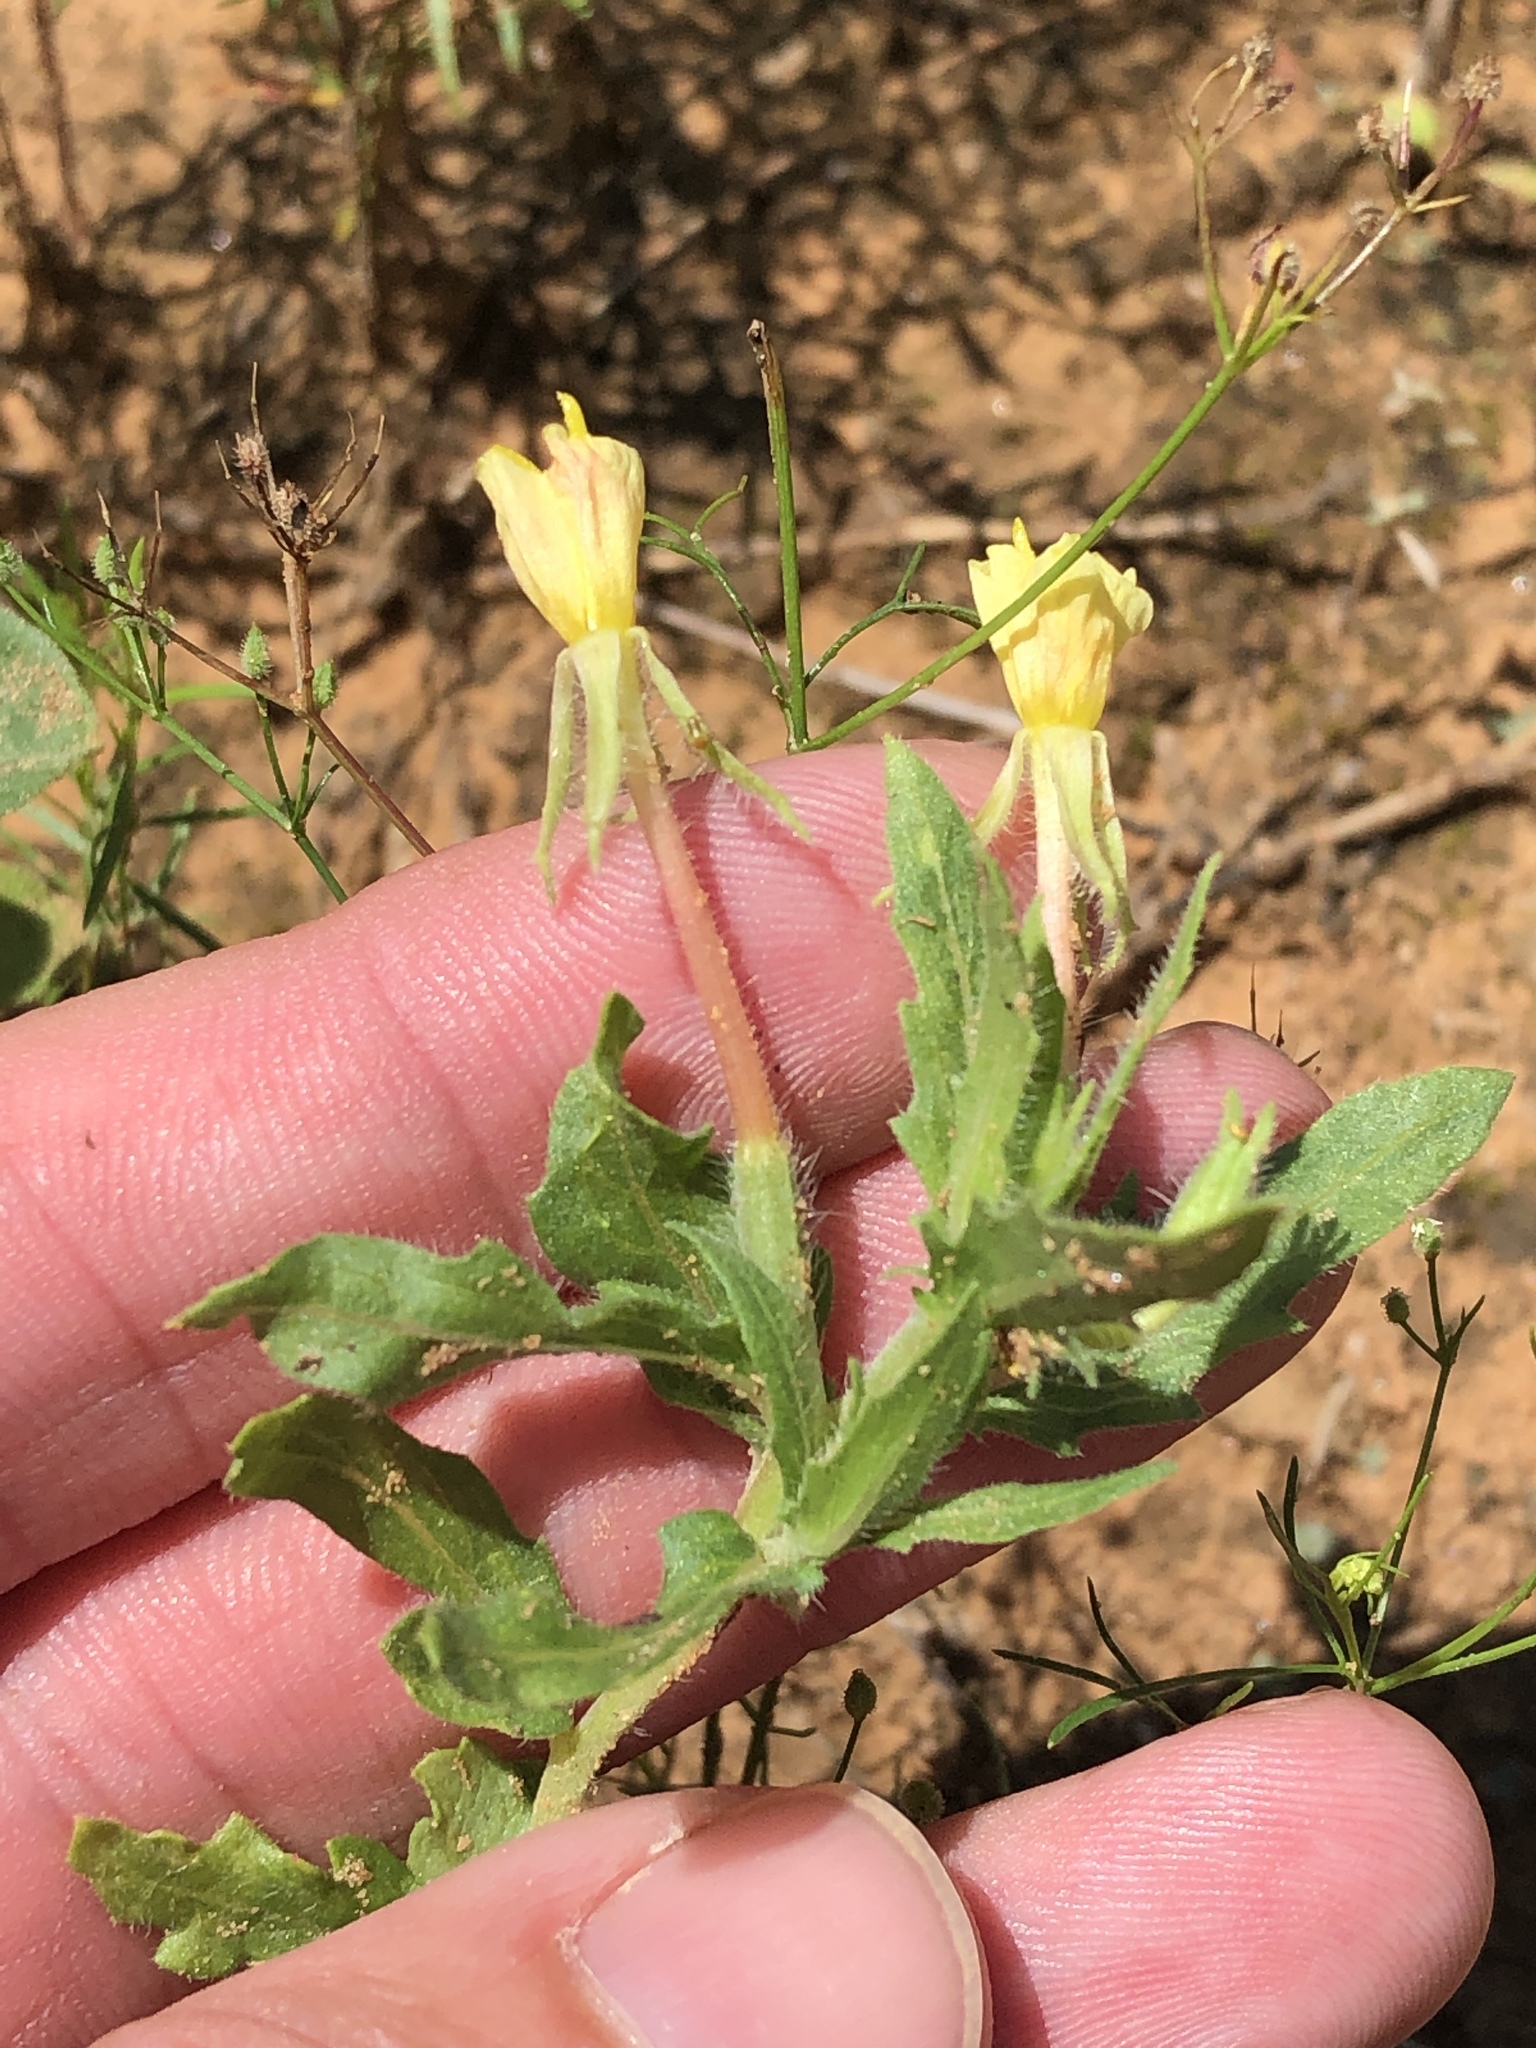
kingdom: Plantae
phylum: Tracheophyta
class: Magnoliopsida
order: Myrtales
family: Onagraceae
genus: Oenothera
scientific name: Oenothera laciniata
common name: Cut-leaved evening-primrose
